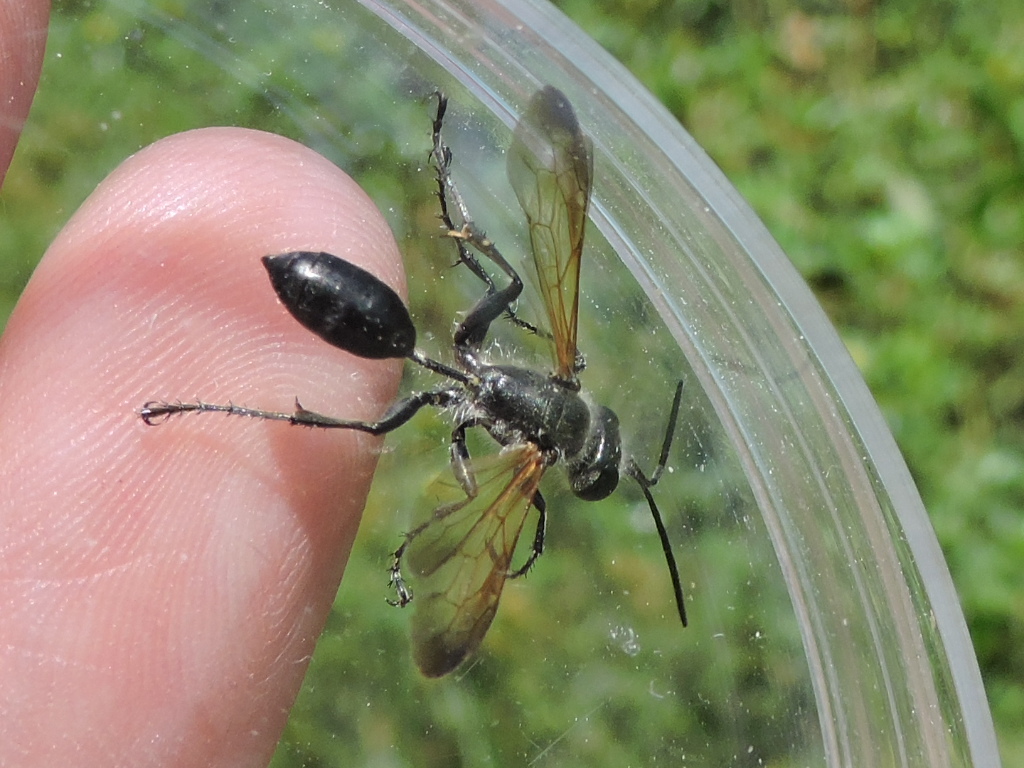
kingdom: Animalia
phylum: Arthropoda
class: Insecta
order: Hymenoptera
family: Sphecidae
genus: Isodontia
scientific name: Isodontia mexicana
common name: Mud dauber
